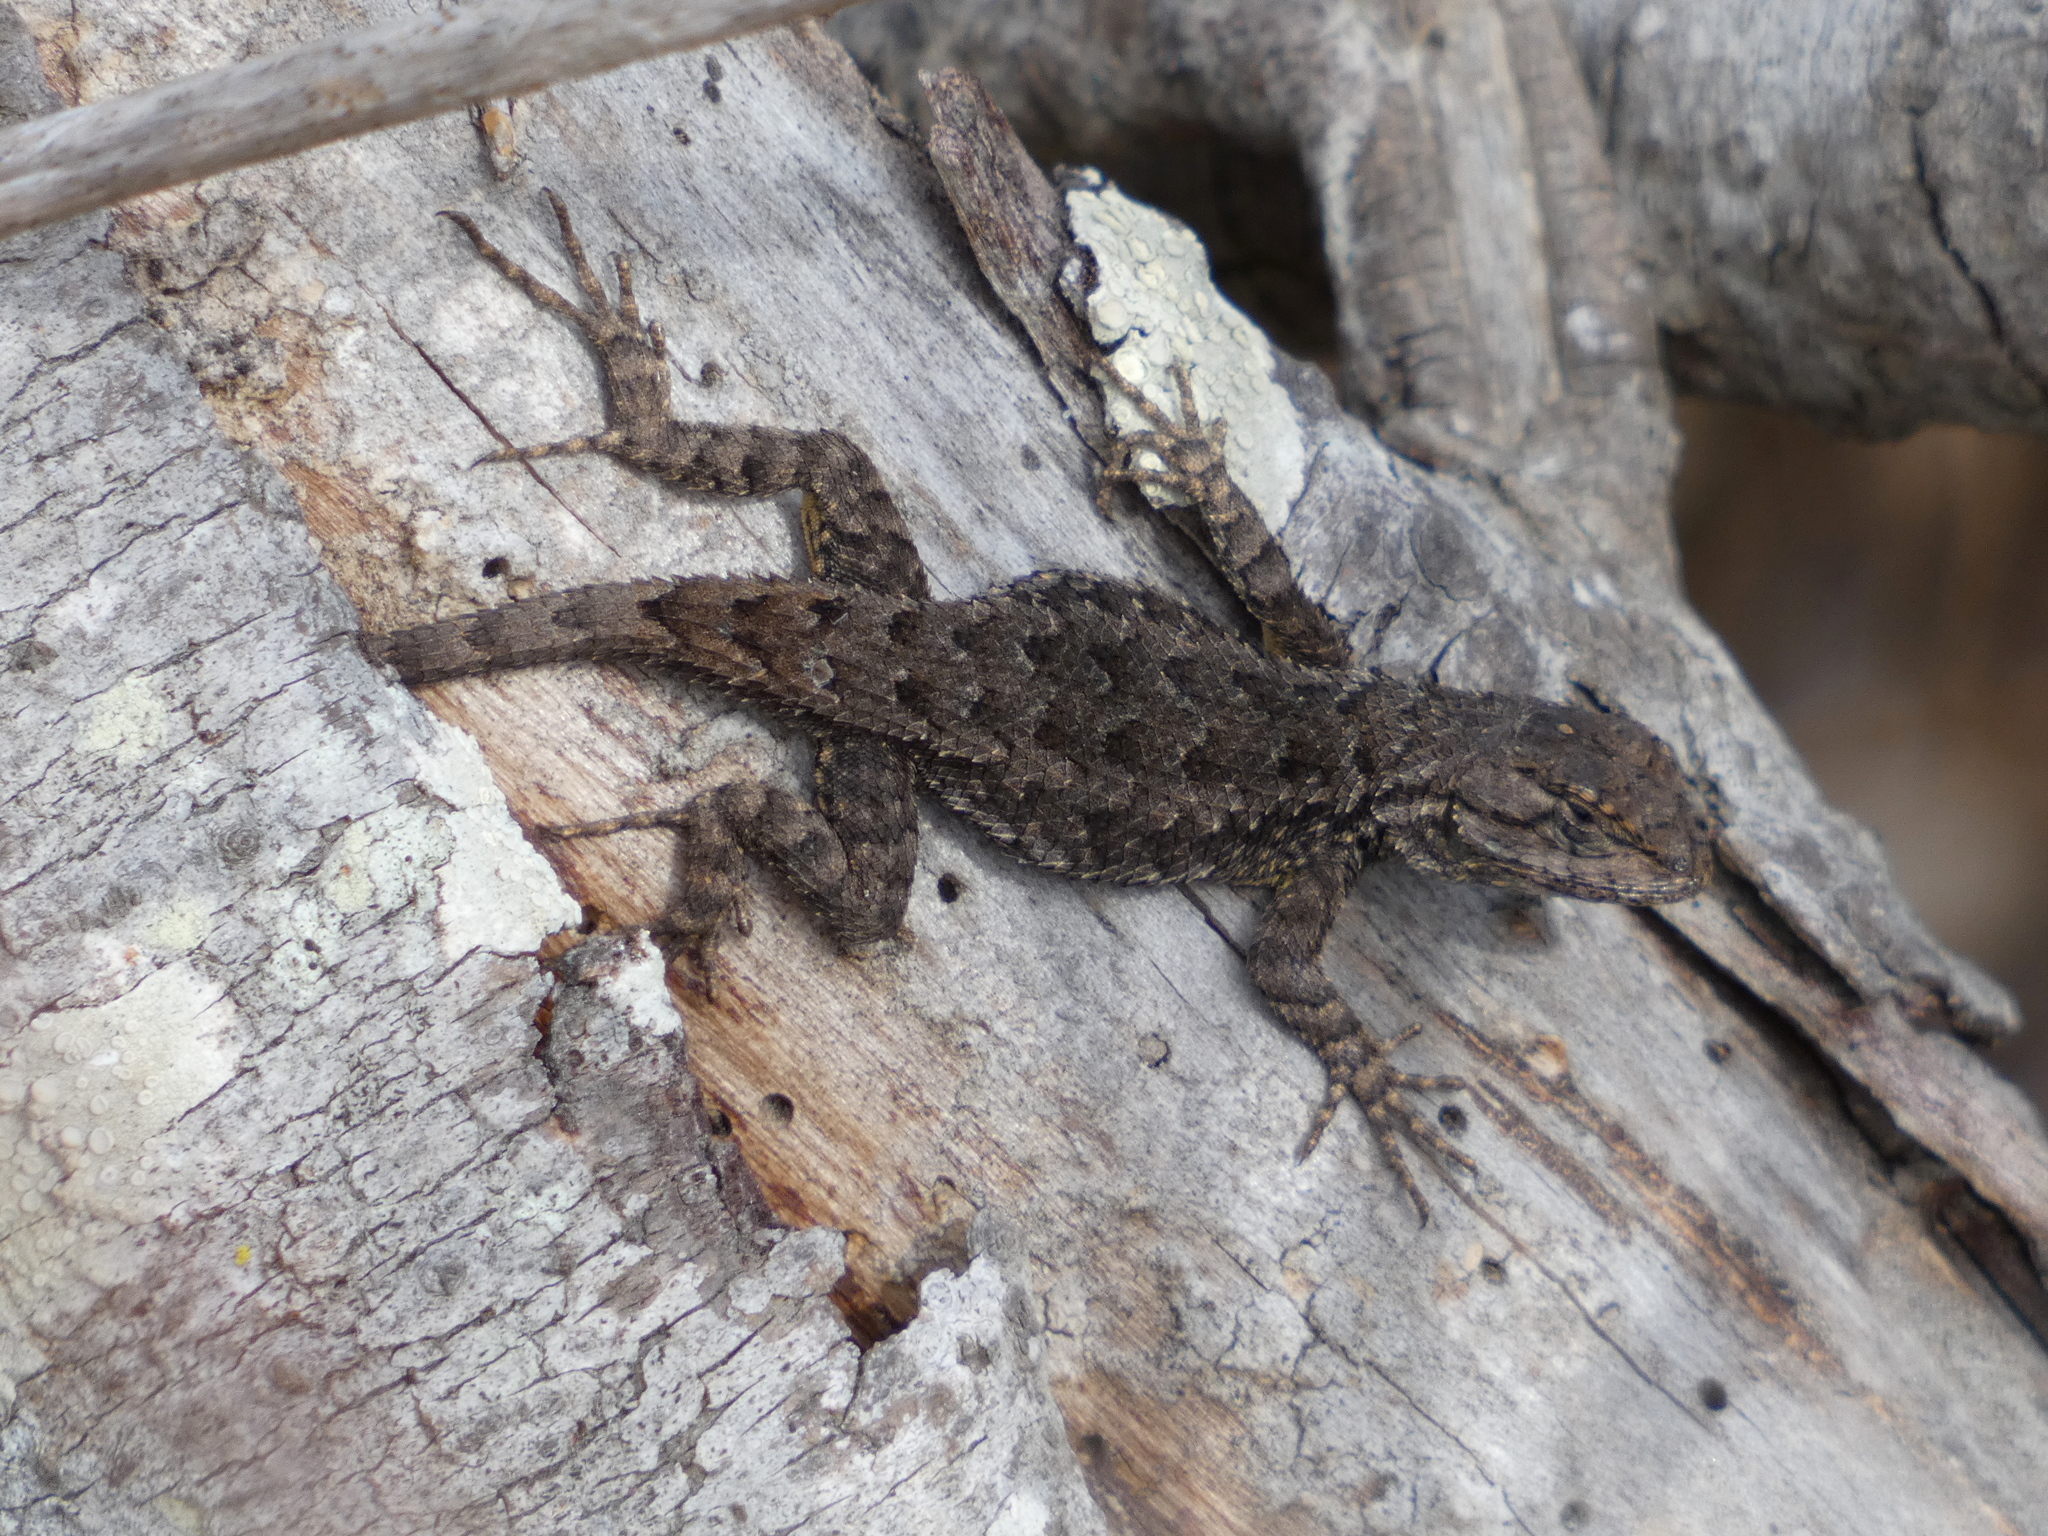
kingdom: Animalia
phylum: Chordata
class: Squamata
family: Phrynosomatidae
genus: Sceloporus
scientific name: Sceloporus occidentalis
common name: Western fence lizard
